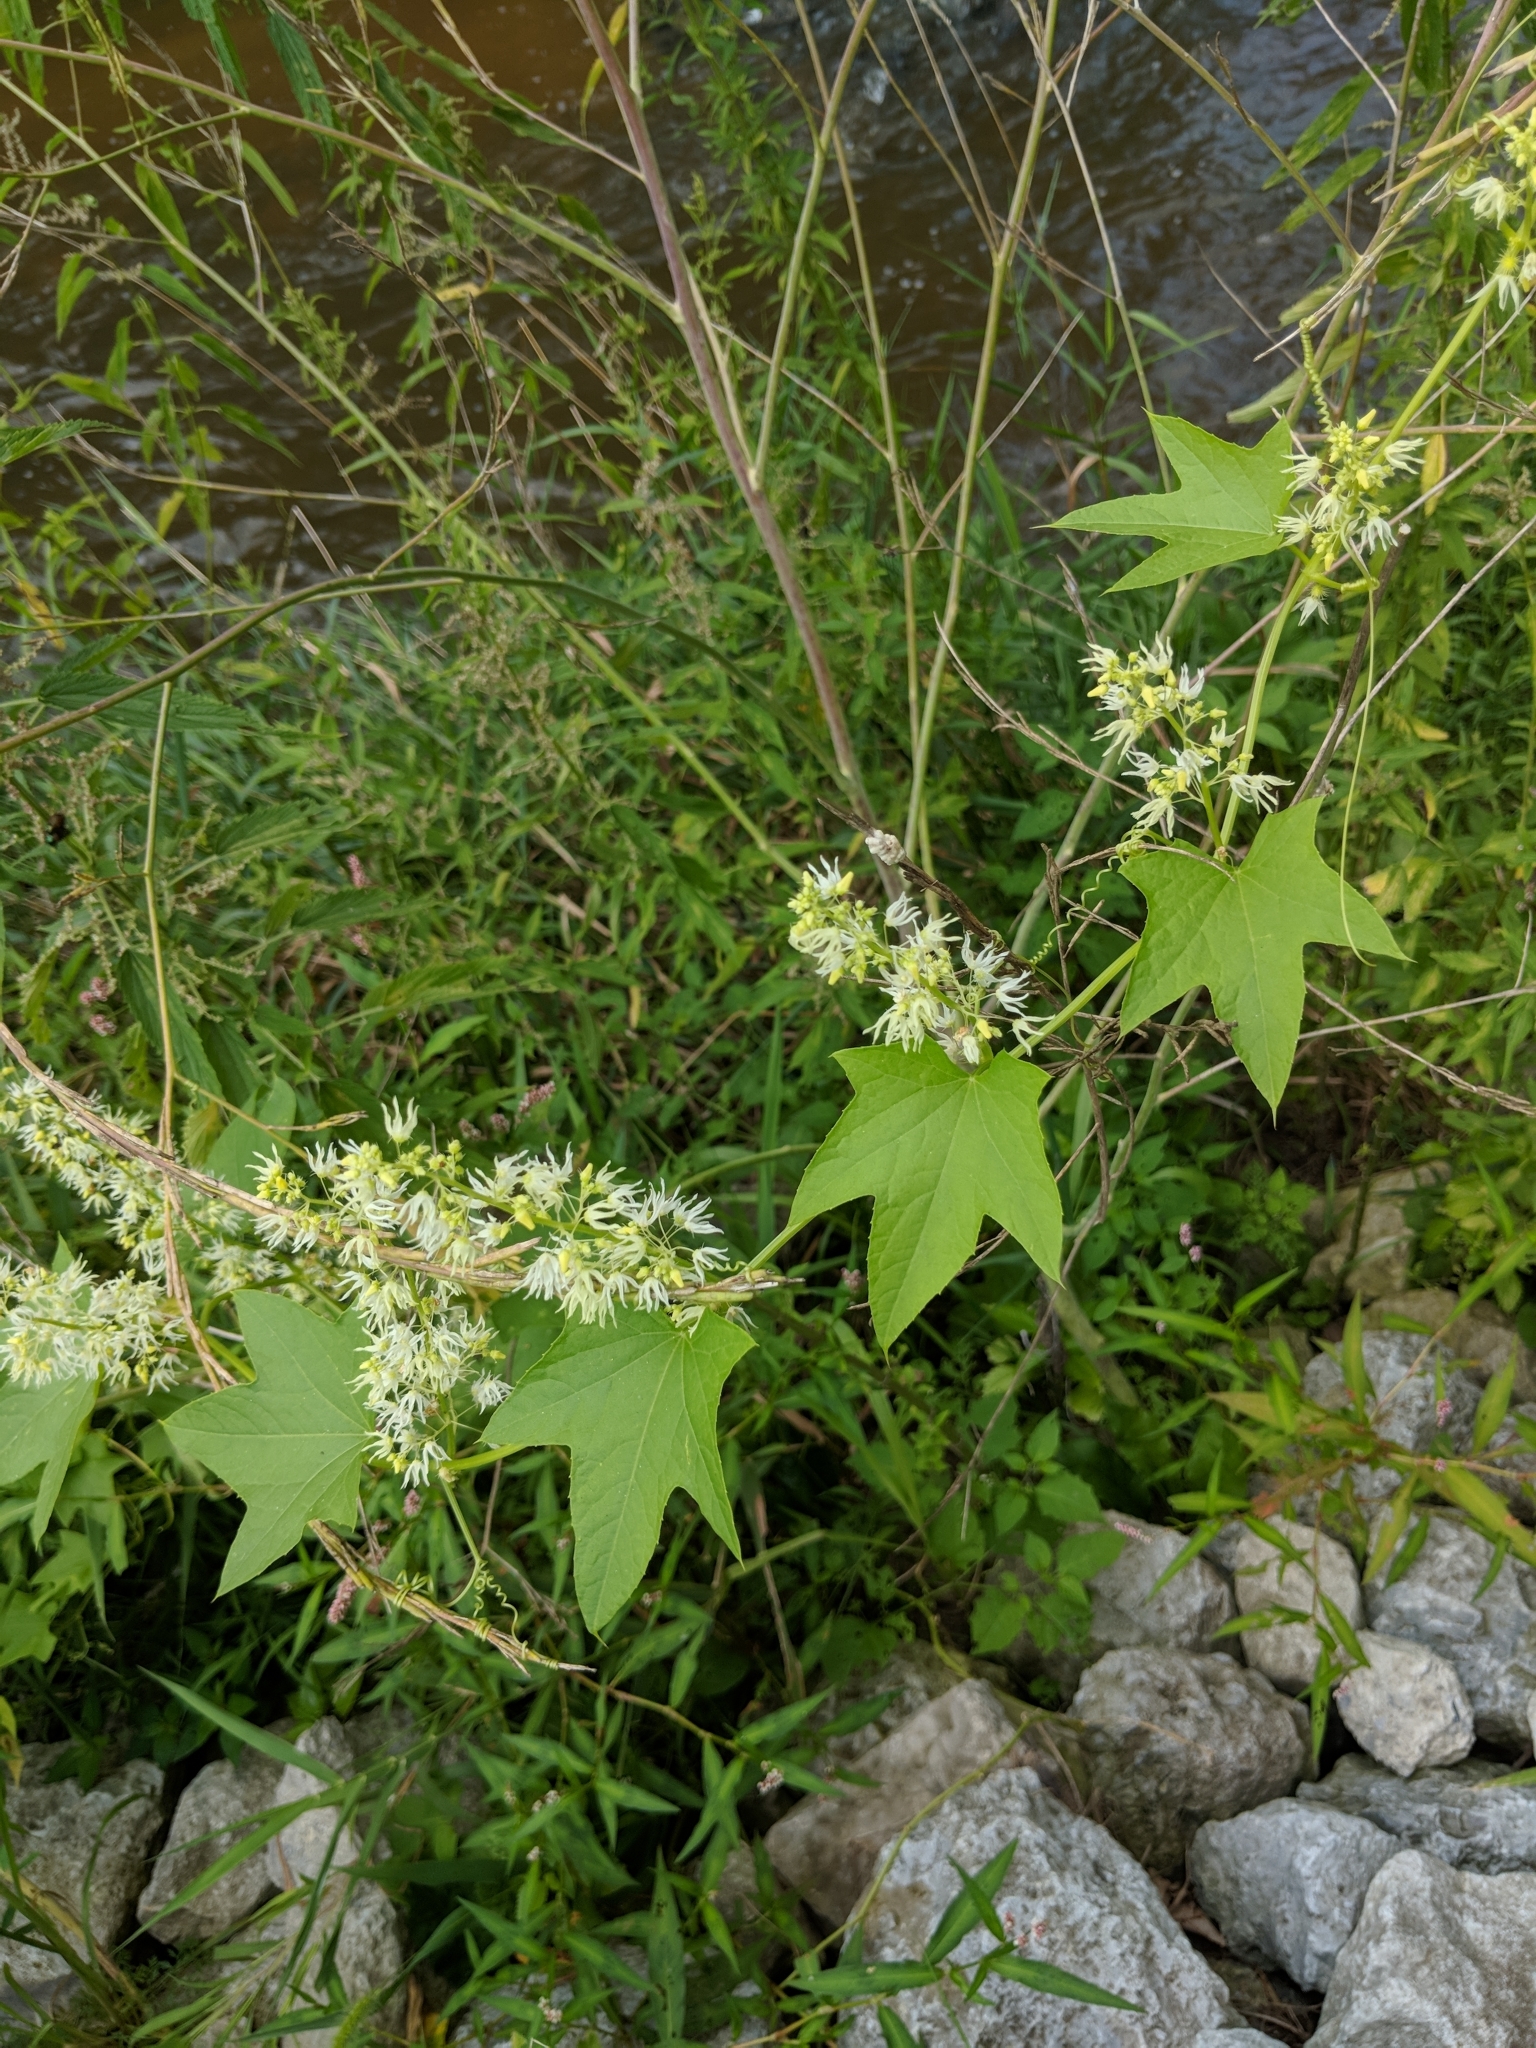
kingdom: Plantae
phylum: Tracheophyta
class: Magnoliopsida
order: Cucurbitales
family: Cucurbitaceae
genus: Echinocystis
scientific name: Echinocystis lobata
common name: Wild cucumber
